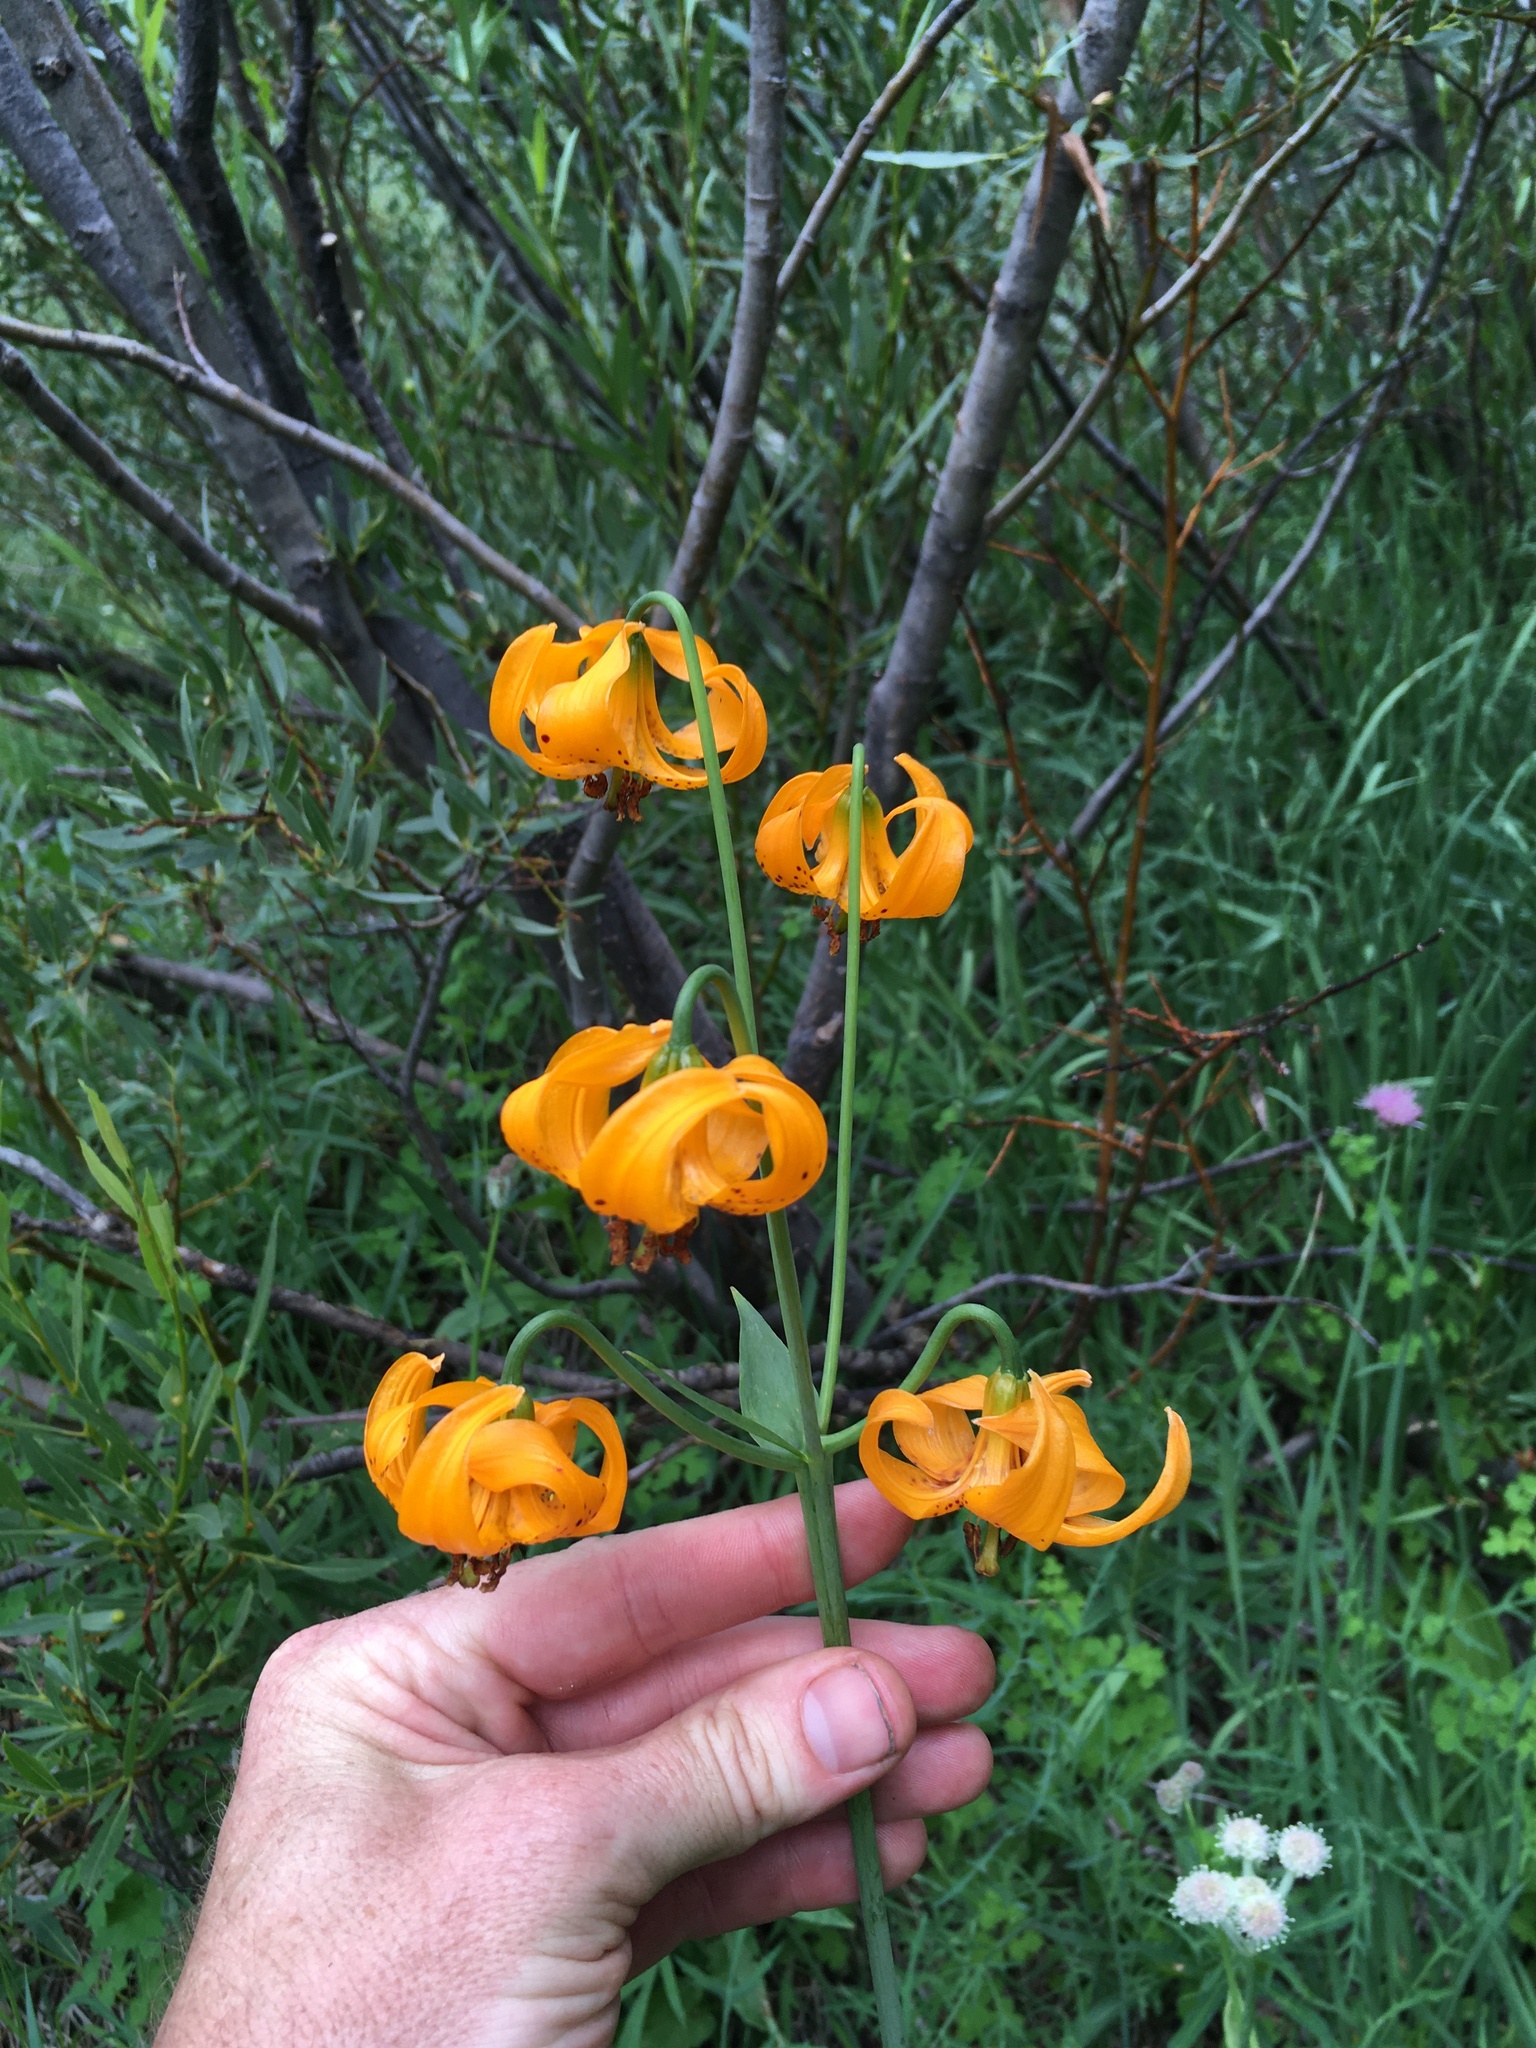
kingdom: Plantae
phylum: Tracheophyta
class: Liliopsida
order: Liliales
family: Liliaceae
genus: Lilium
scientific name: Lilium kelleyanum
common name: Kelley's lily
